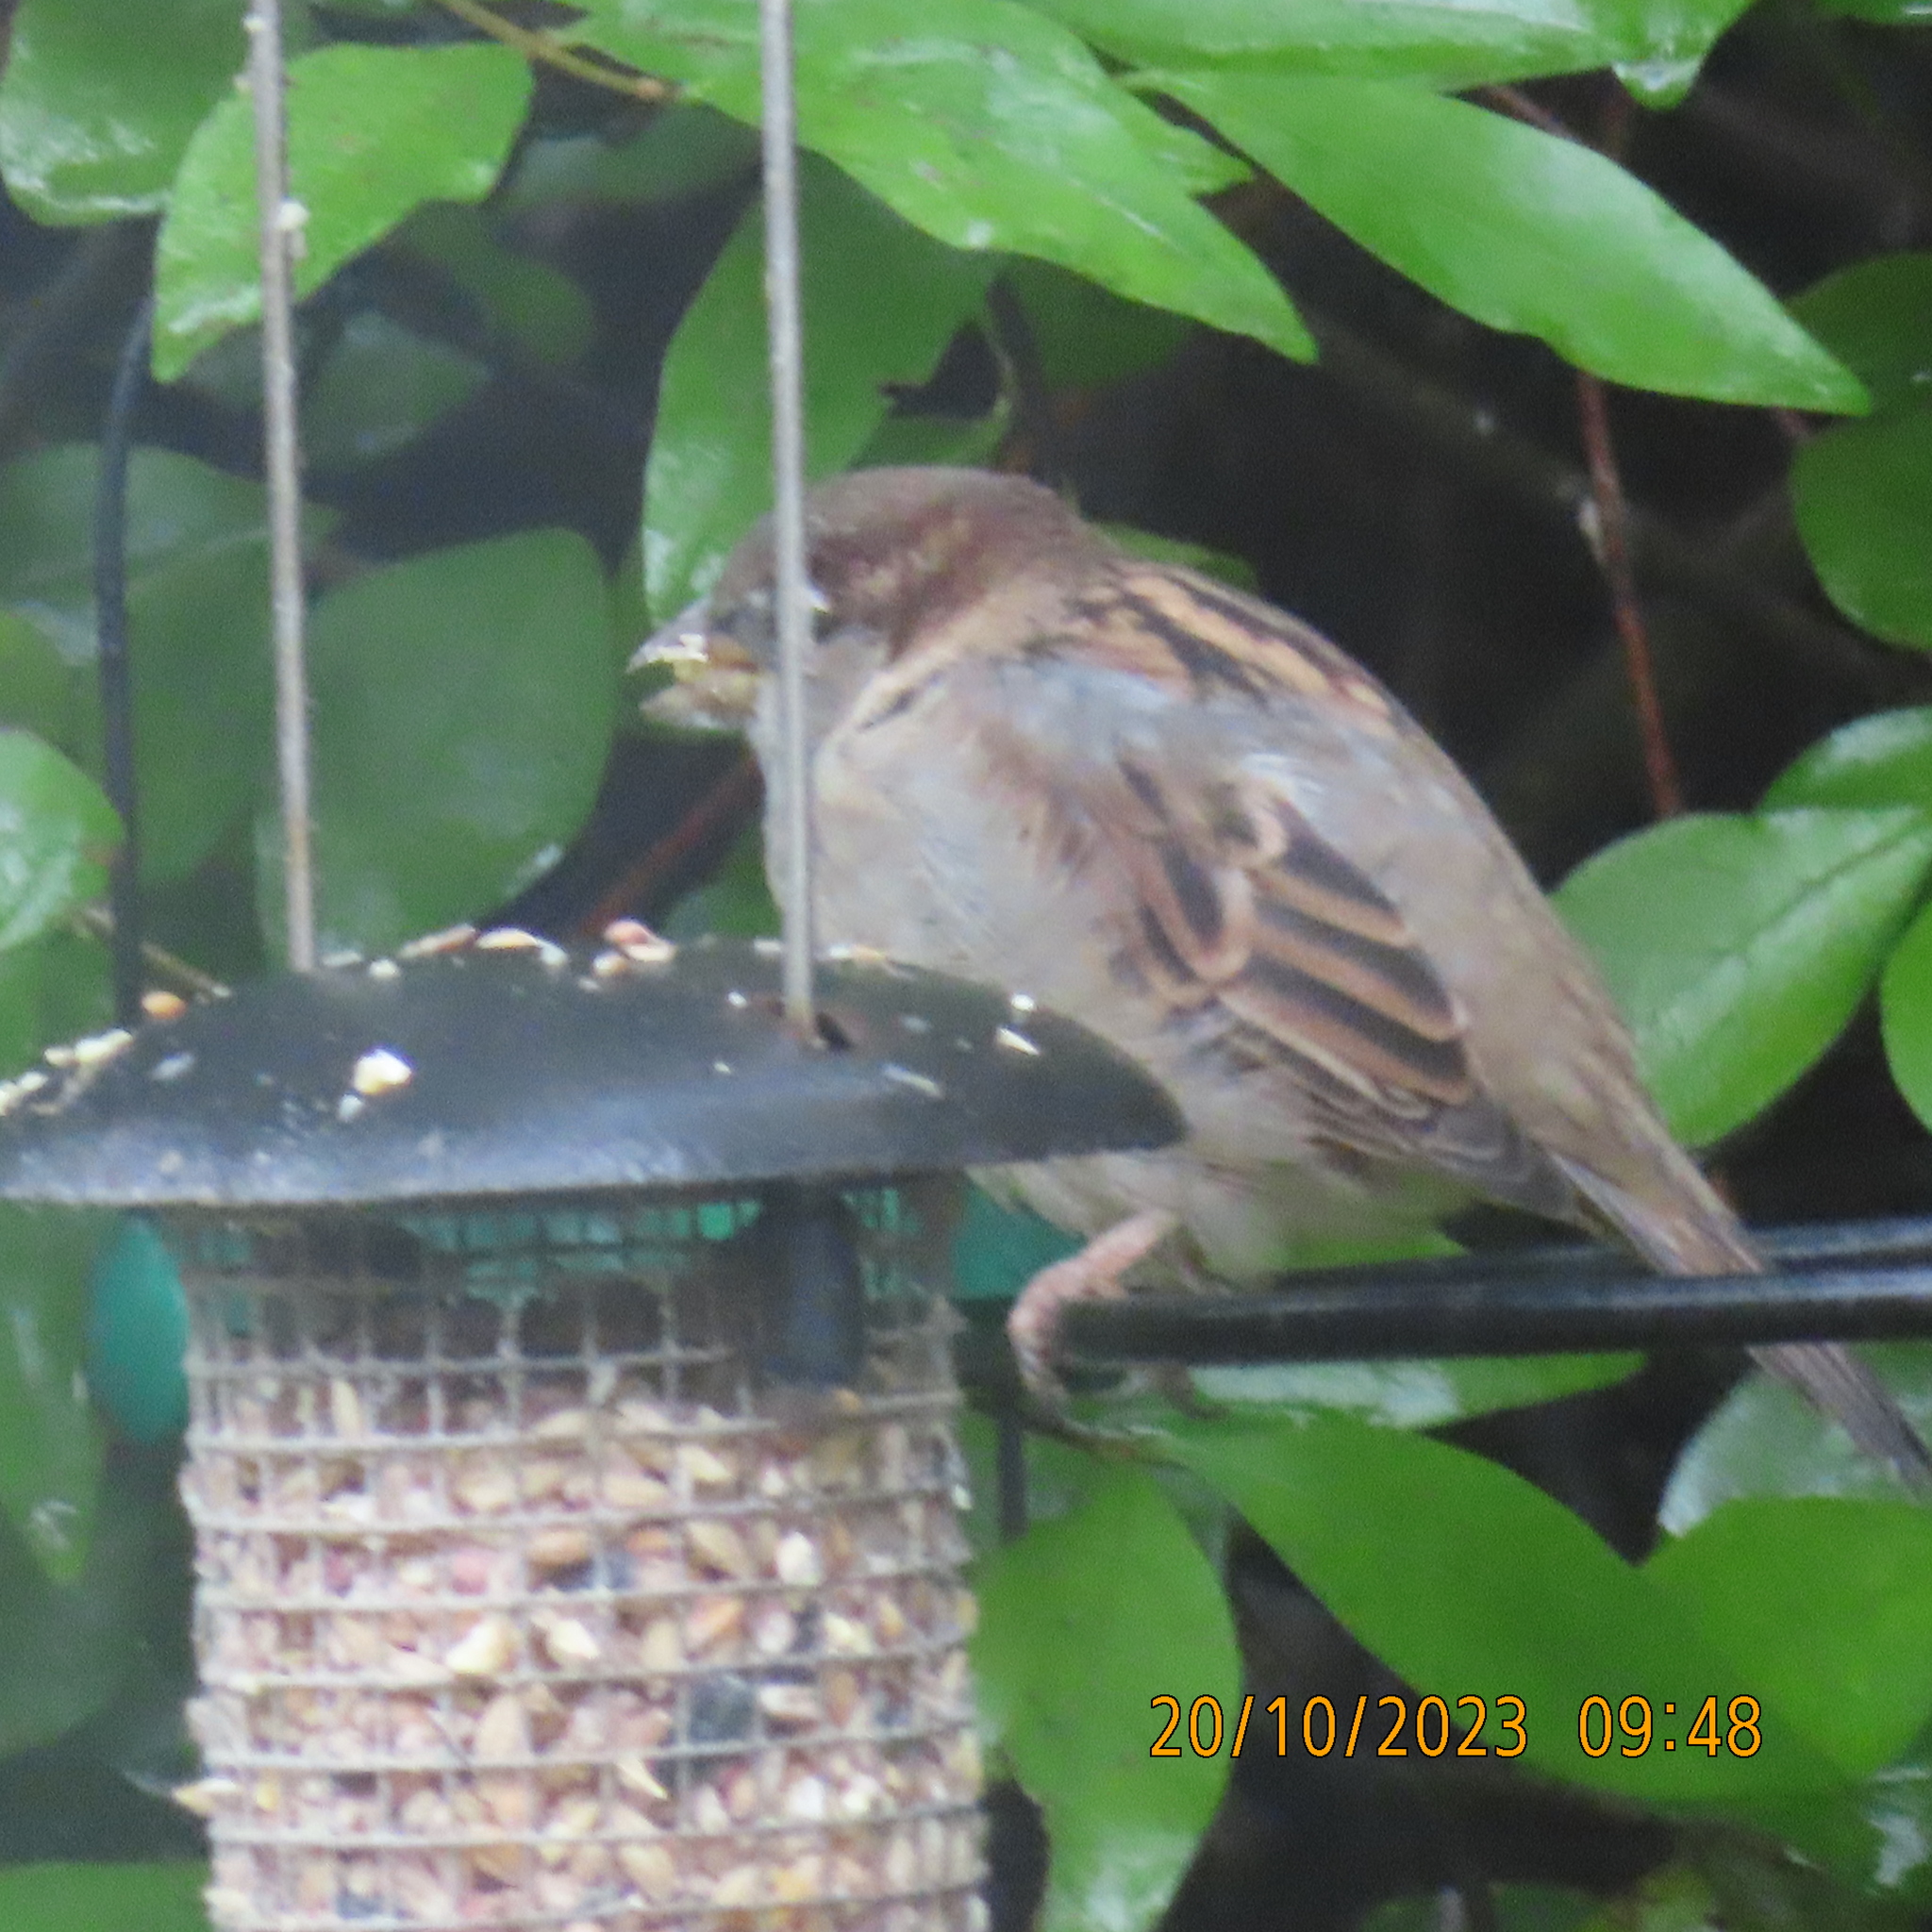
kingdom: Animalia
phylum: Chordata
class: Aves
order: Passeriformes
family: Passeridae
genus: Passer
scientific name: Passer domesticus
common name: House sparrow
